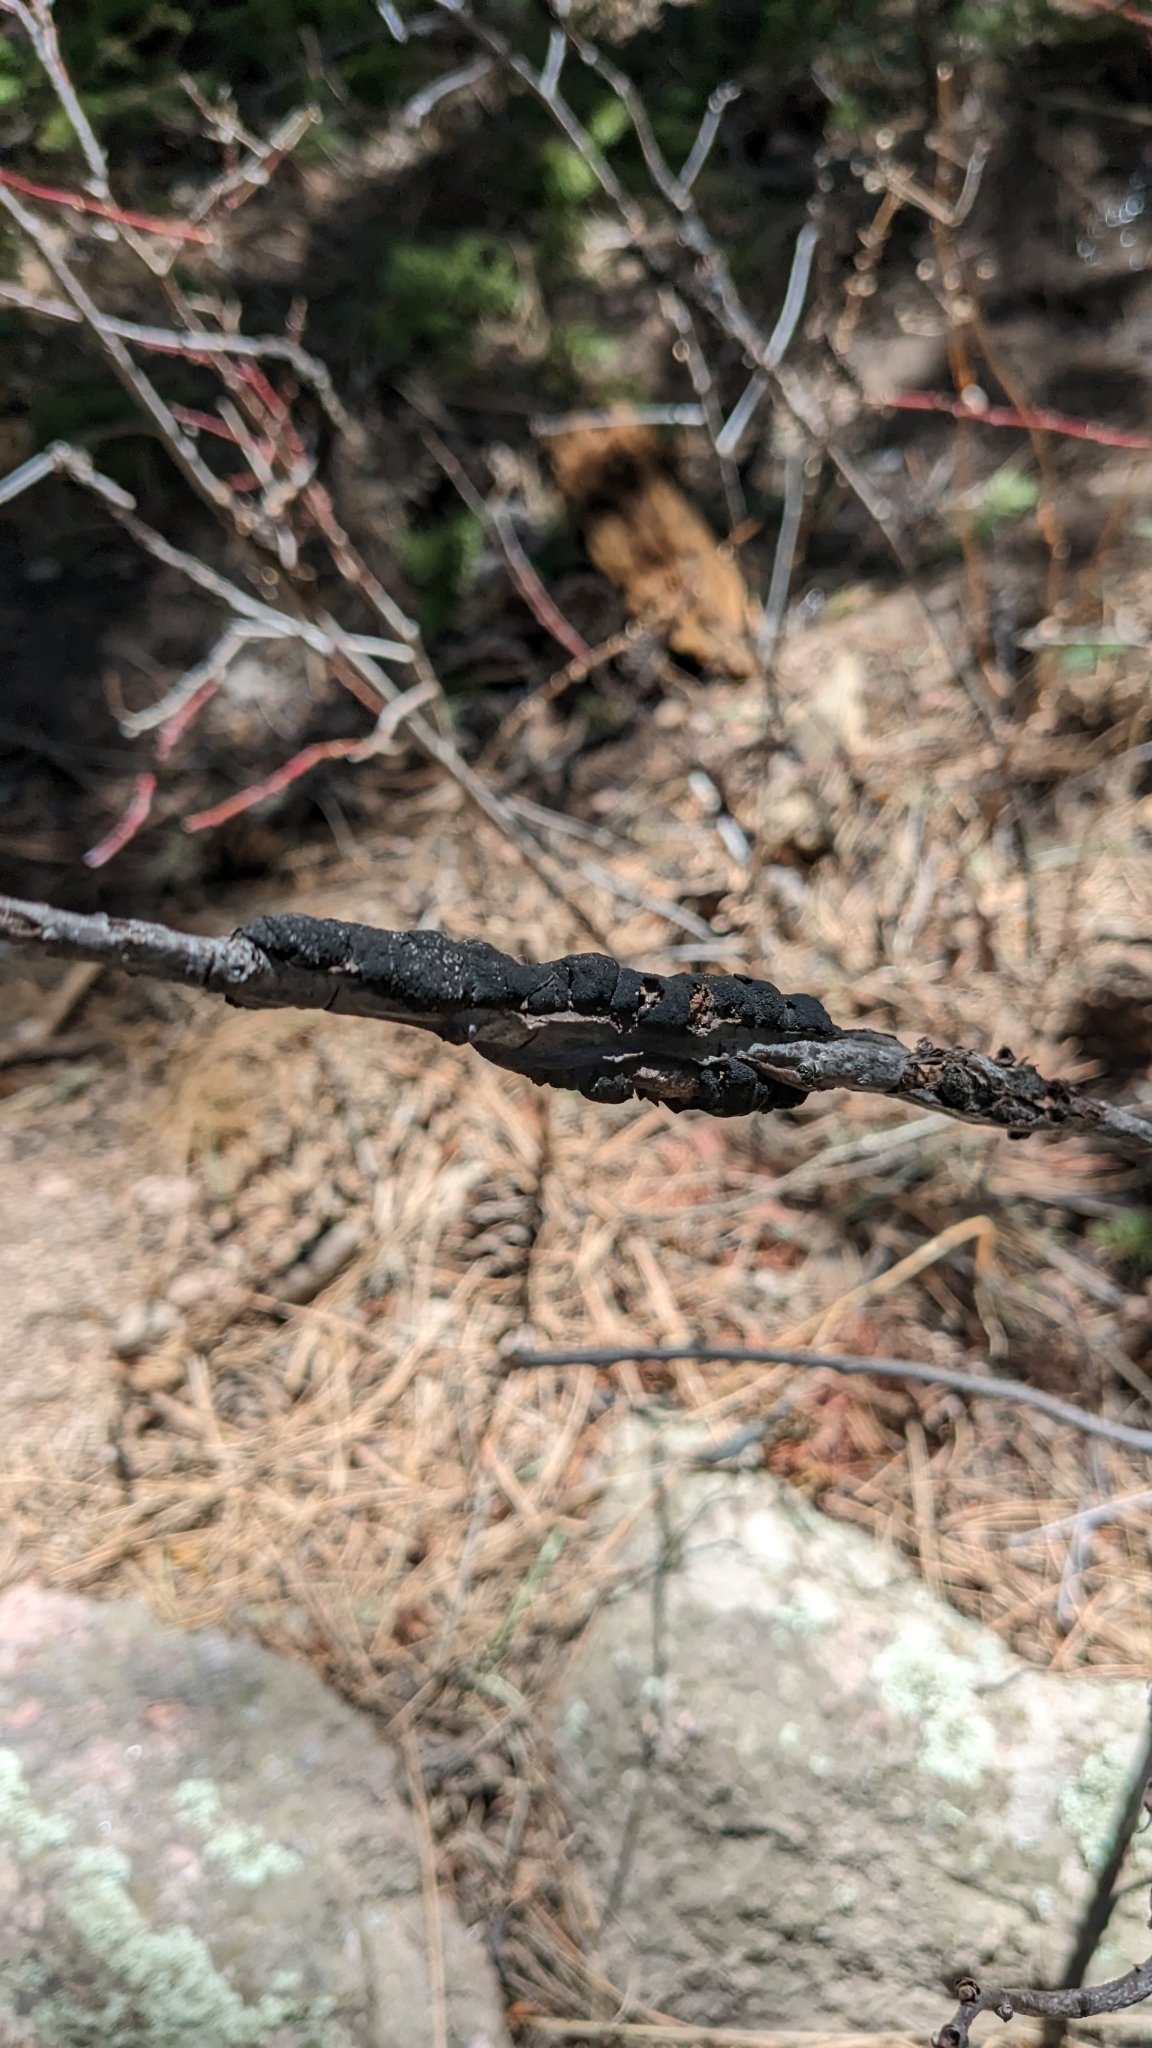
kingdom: Fungi
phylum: Ascomycota
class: Dothideomycetes
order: Venturiales
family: Venturiaceae
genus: Apiosporina
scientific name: Apiosporina morbosa
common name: Black knot
